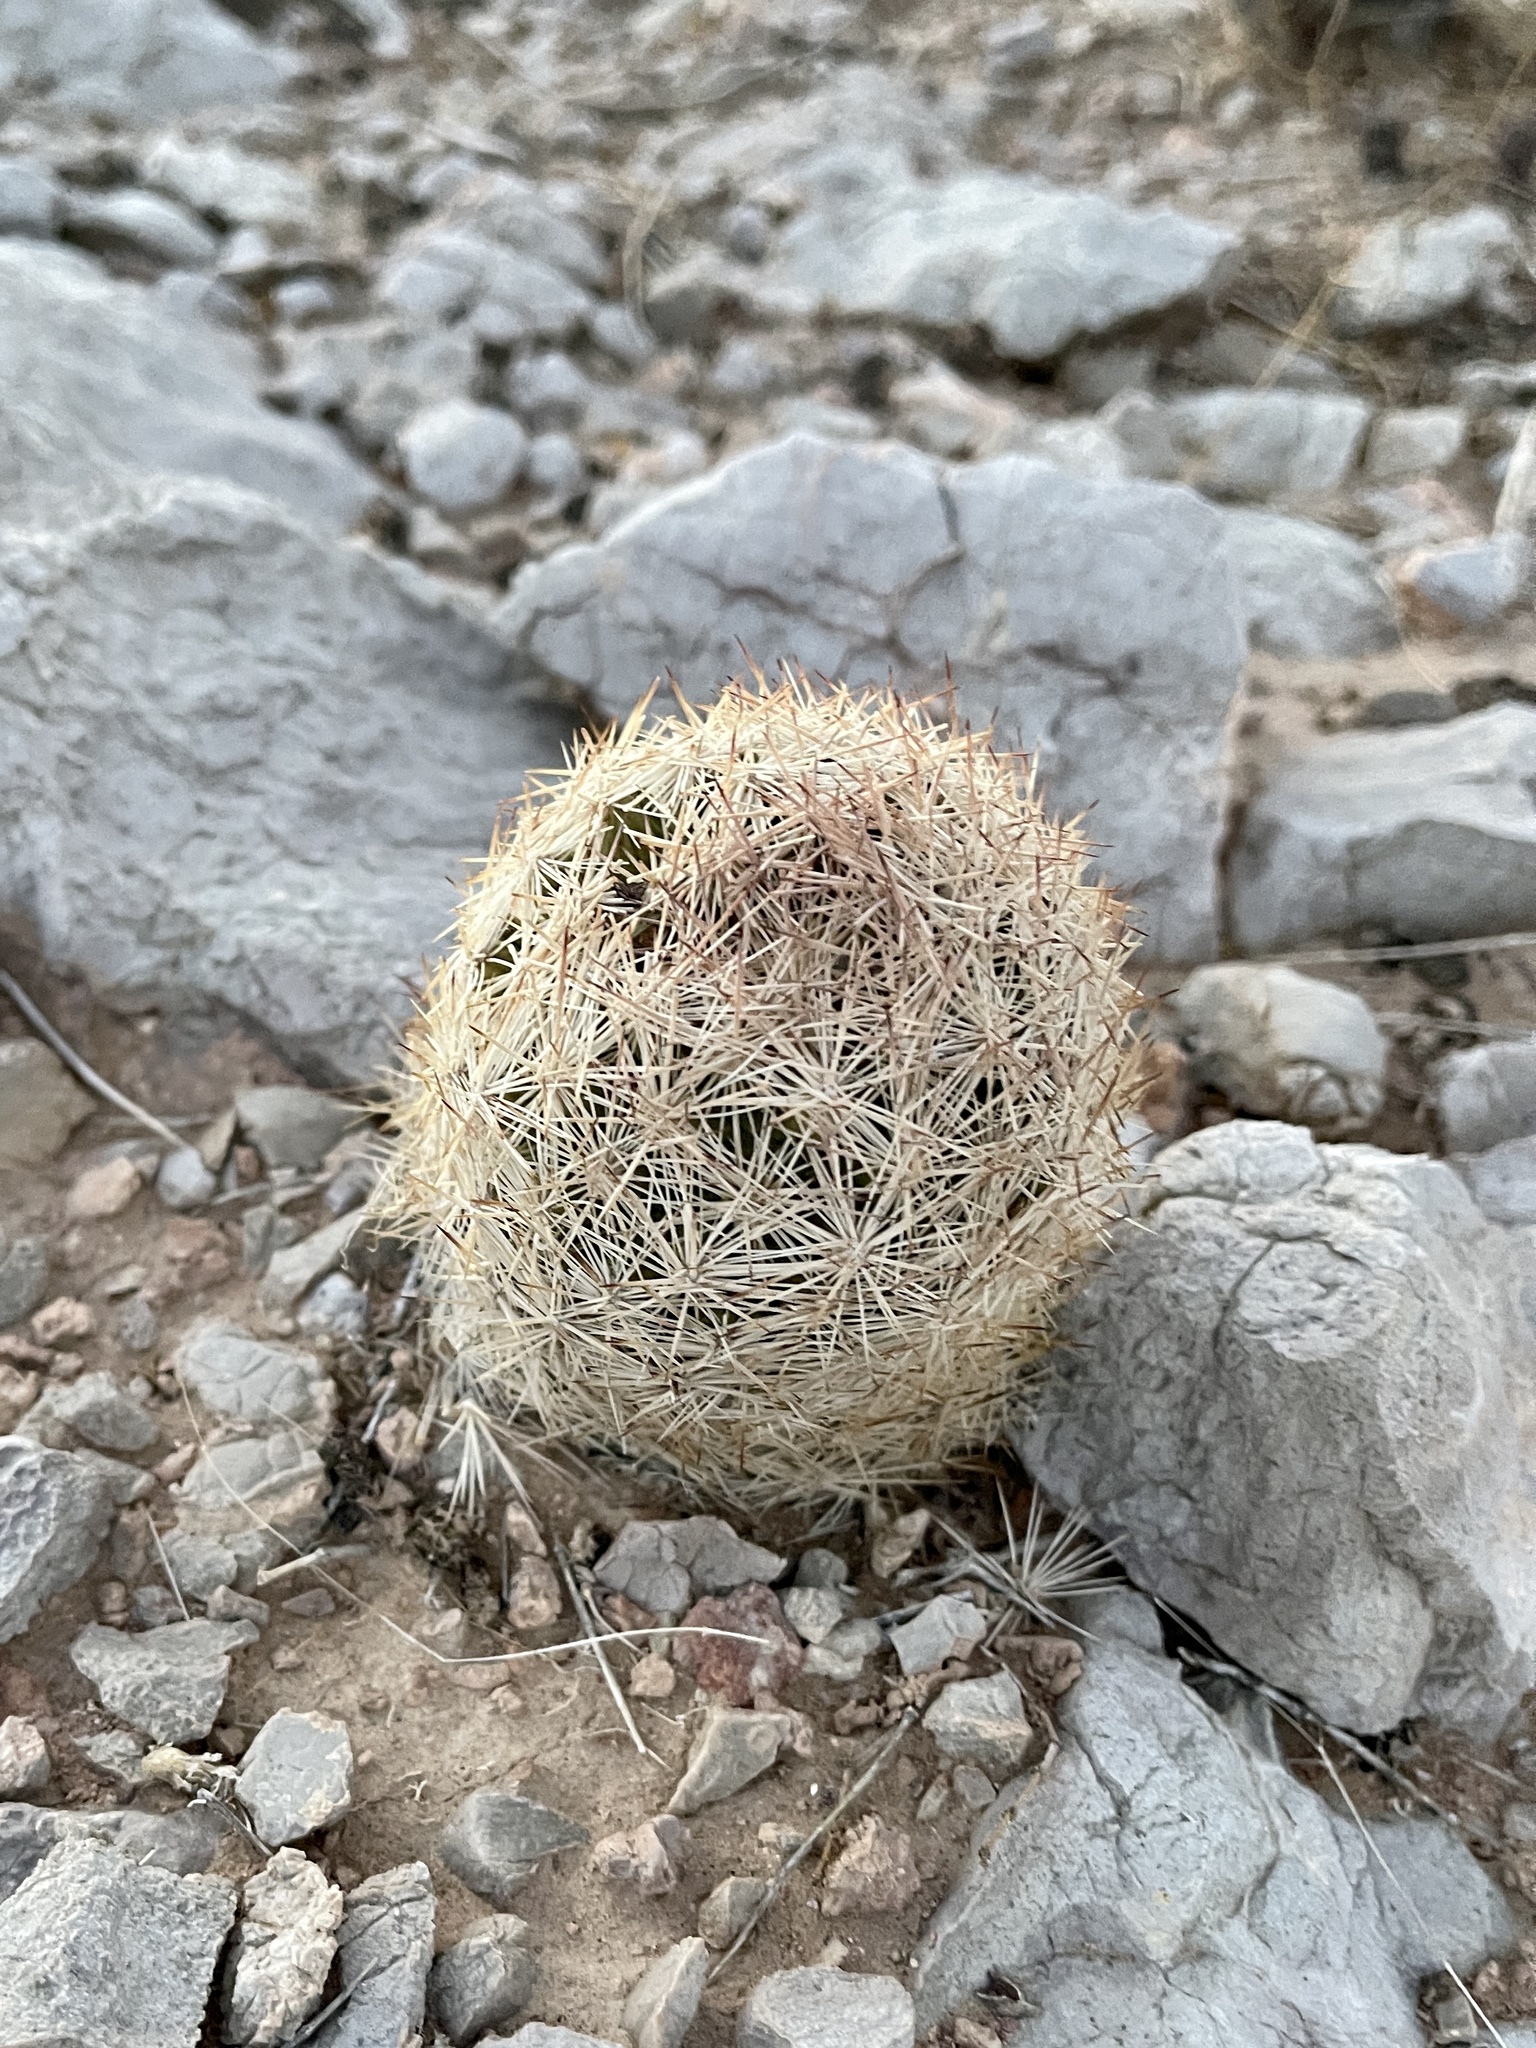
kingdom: Plantae
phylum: Tracheophyta
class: Magnoliopsida
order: Caryophyllales
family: Cactaceae
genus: Pelecyphora
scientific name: Pelecyphora dasyacantha
